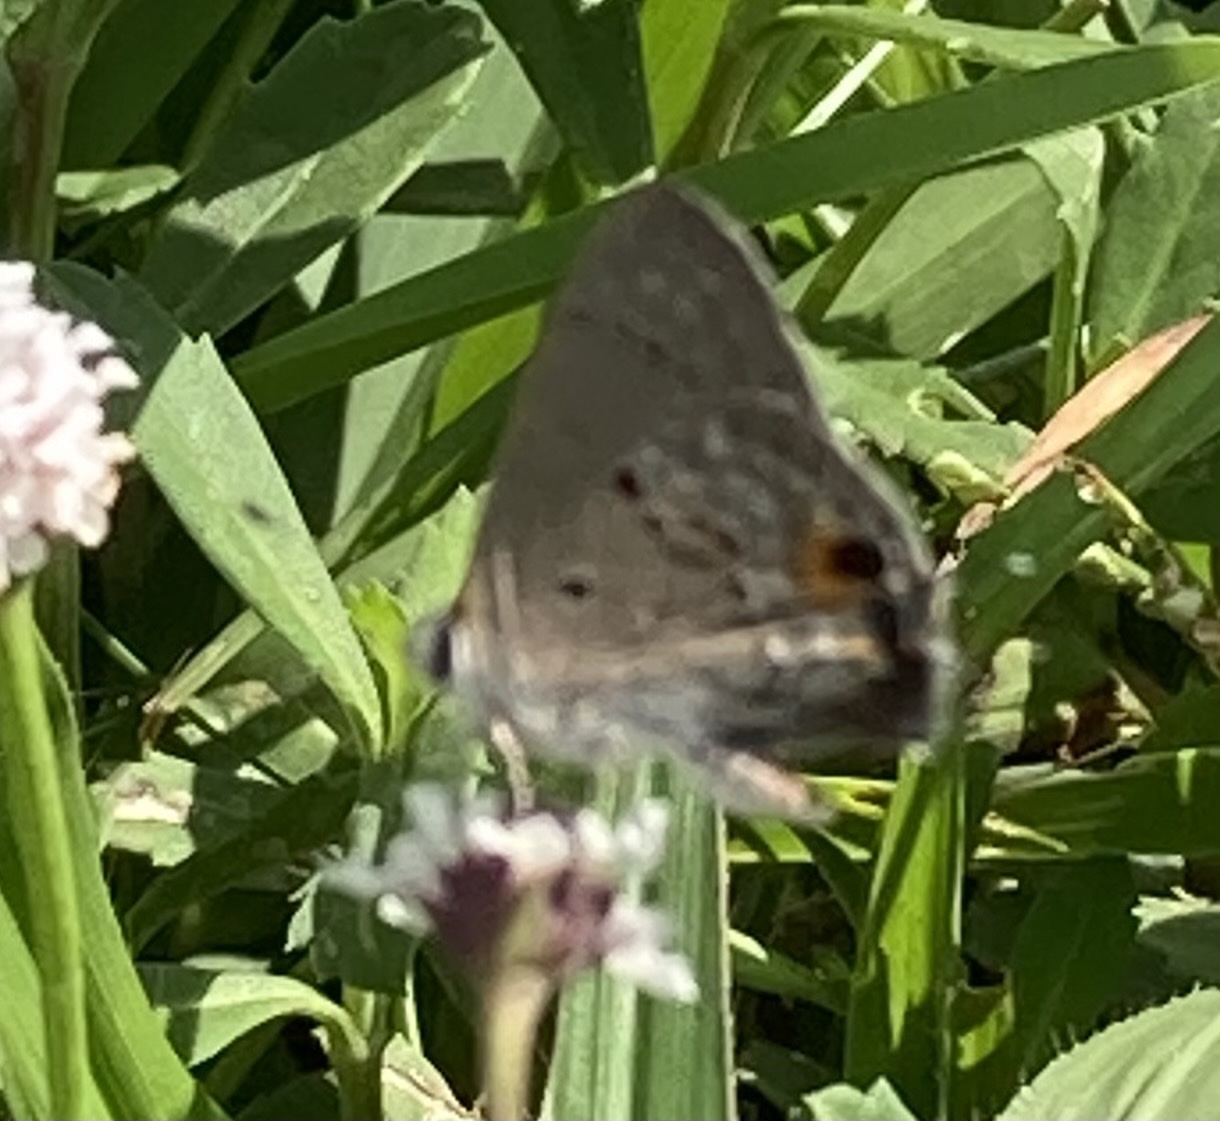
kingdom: Animalia
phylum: Arthropoda
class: Insecta
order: Lepidoptera
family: Lycaenidae
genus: Callicista
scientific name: Callicista columella
